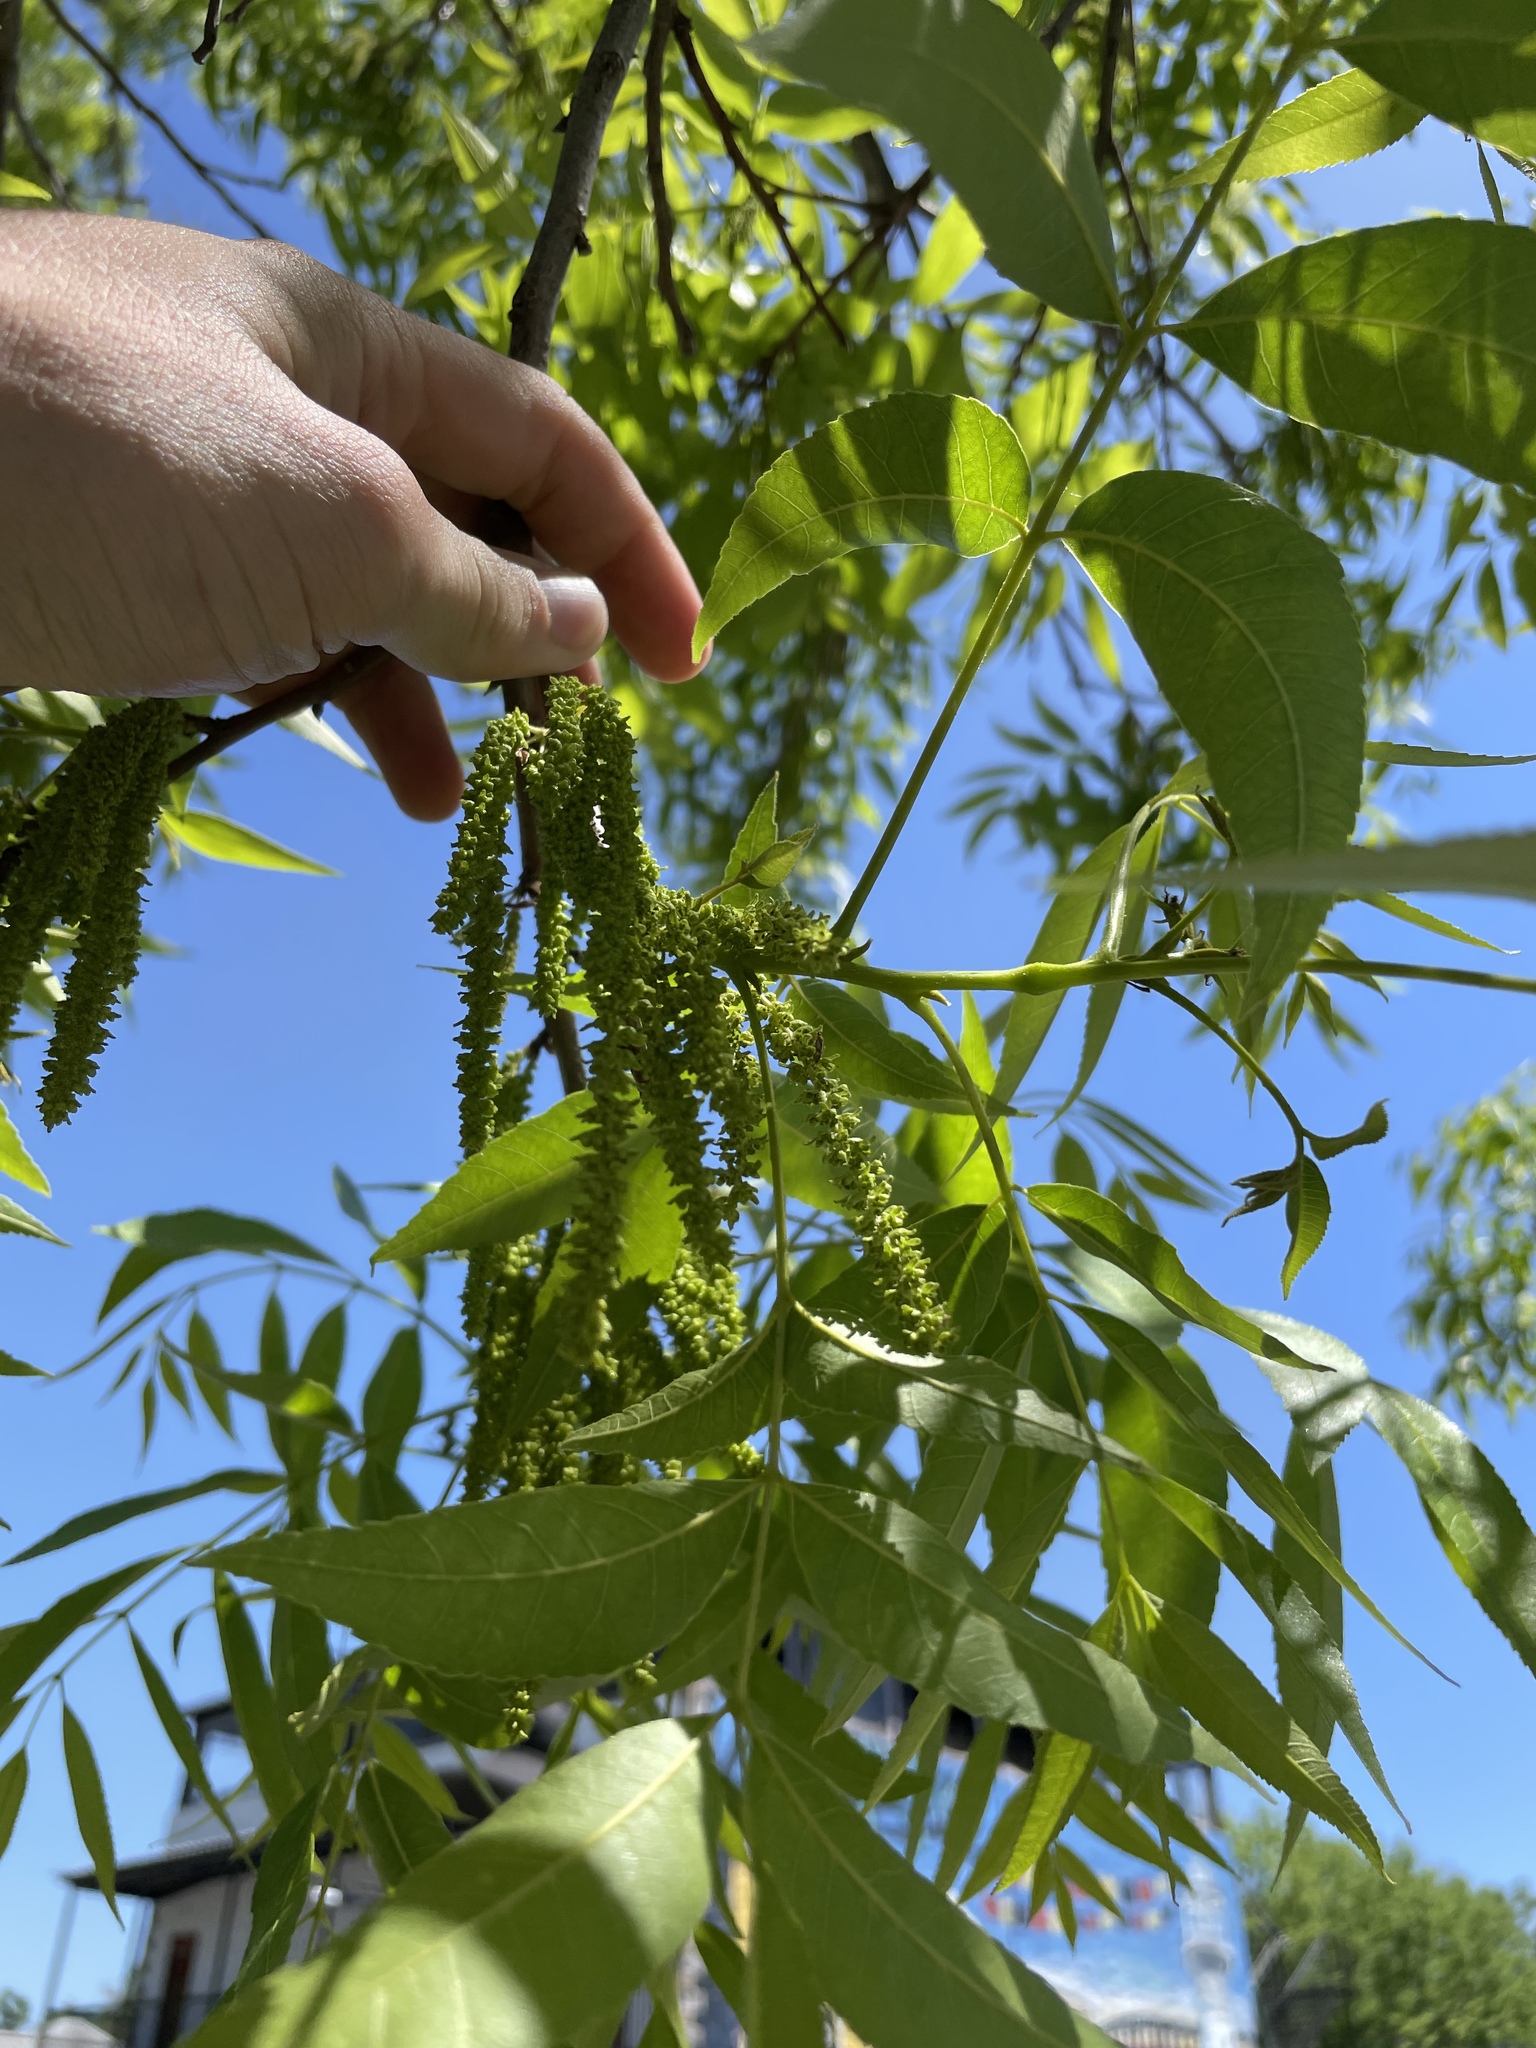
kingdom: Plantae
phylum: Tracheophyta
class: Magnoliopsida
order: Fagales
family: Juglandaceae
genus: Carya
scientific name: Carya illinoinensis
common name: Pecan
